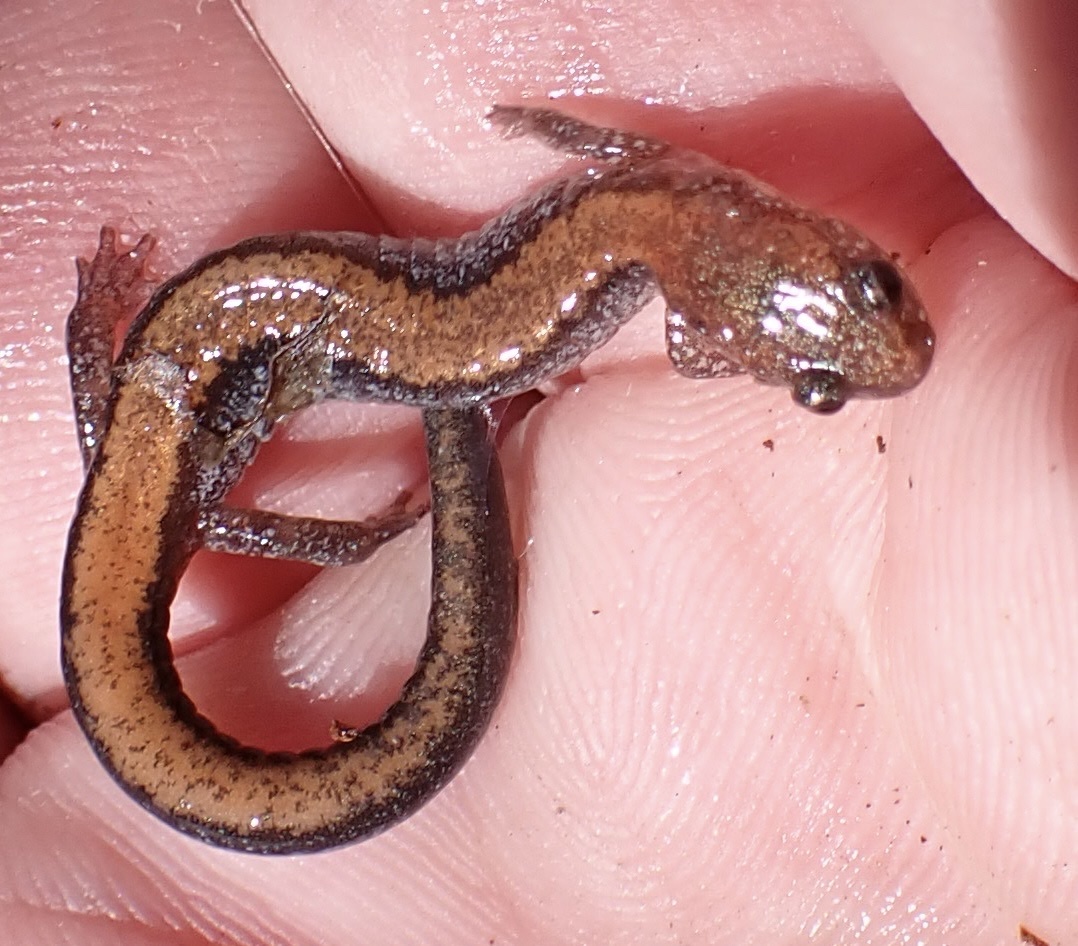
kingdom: Animalia
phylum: Chordata
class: Amphibia
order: Caudata
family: Plethodontidae
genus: Plethodon
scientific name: Plethodon cinereus
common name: Redback salamander
